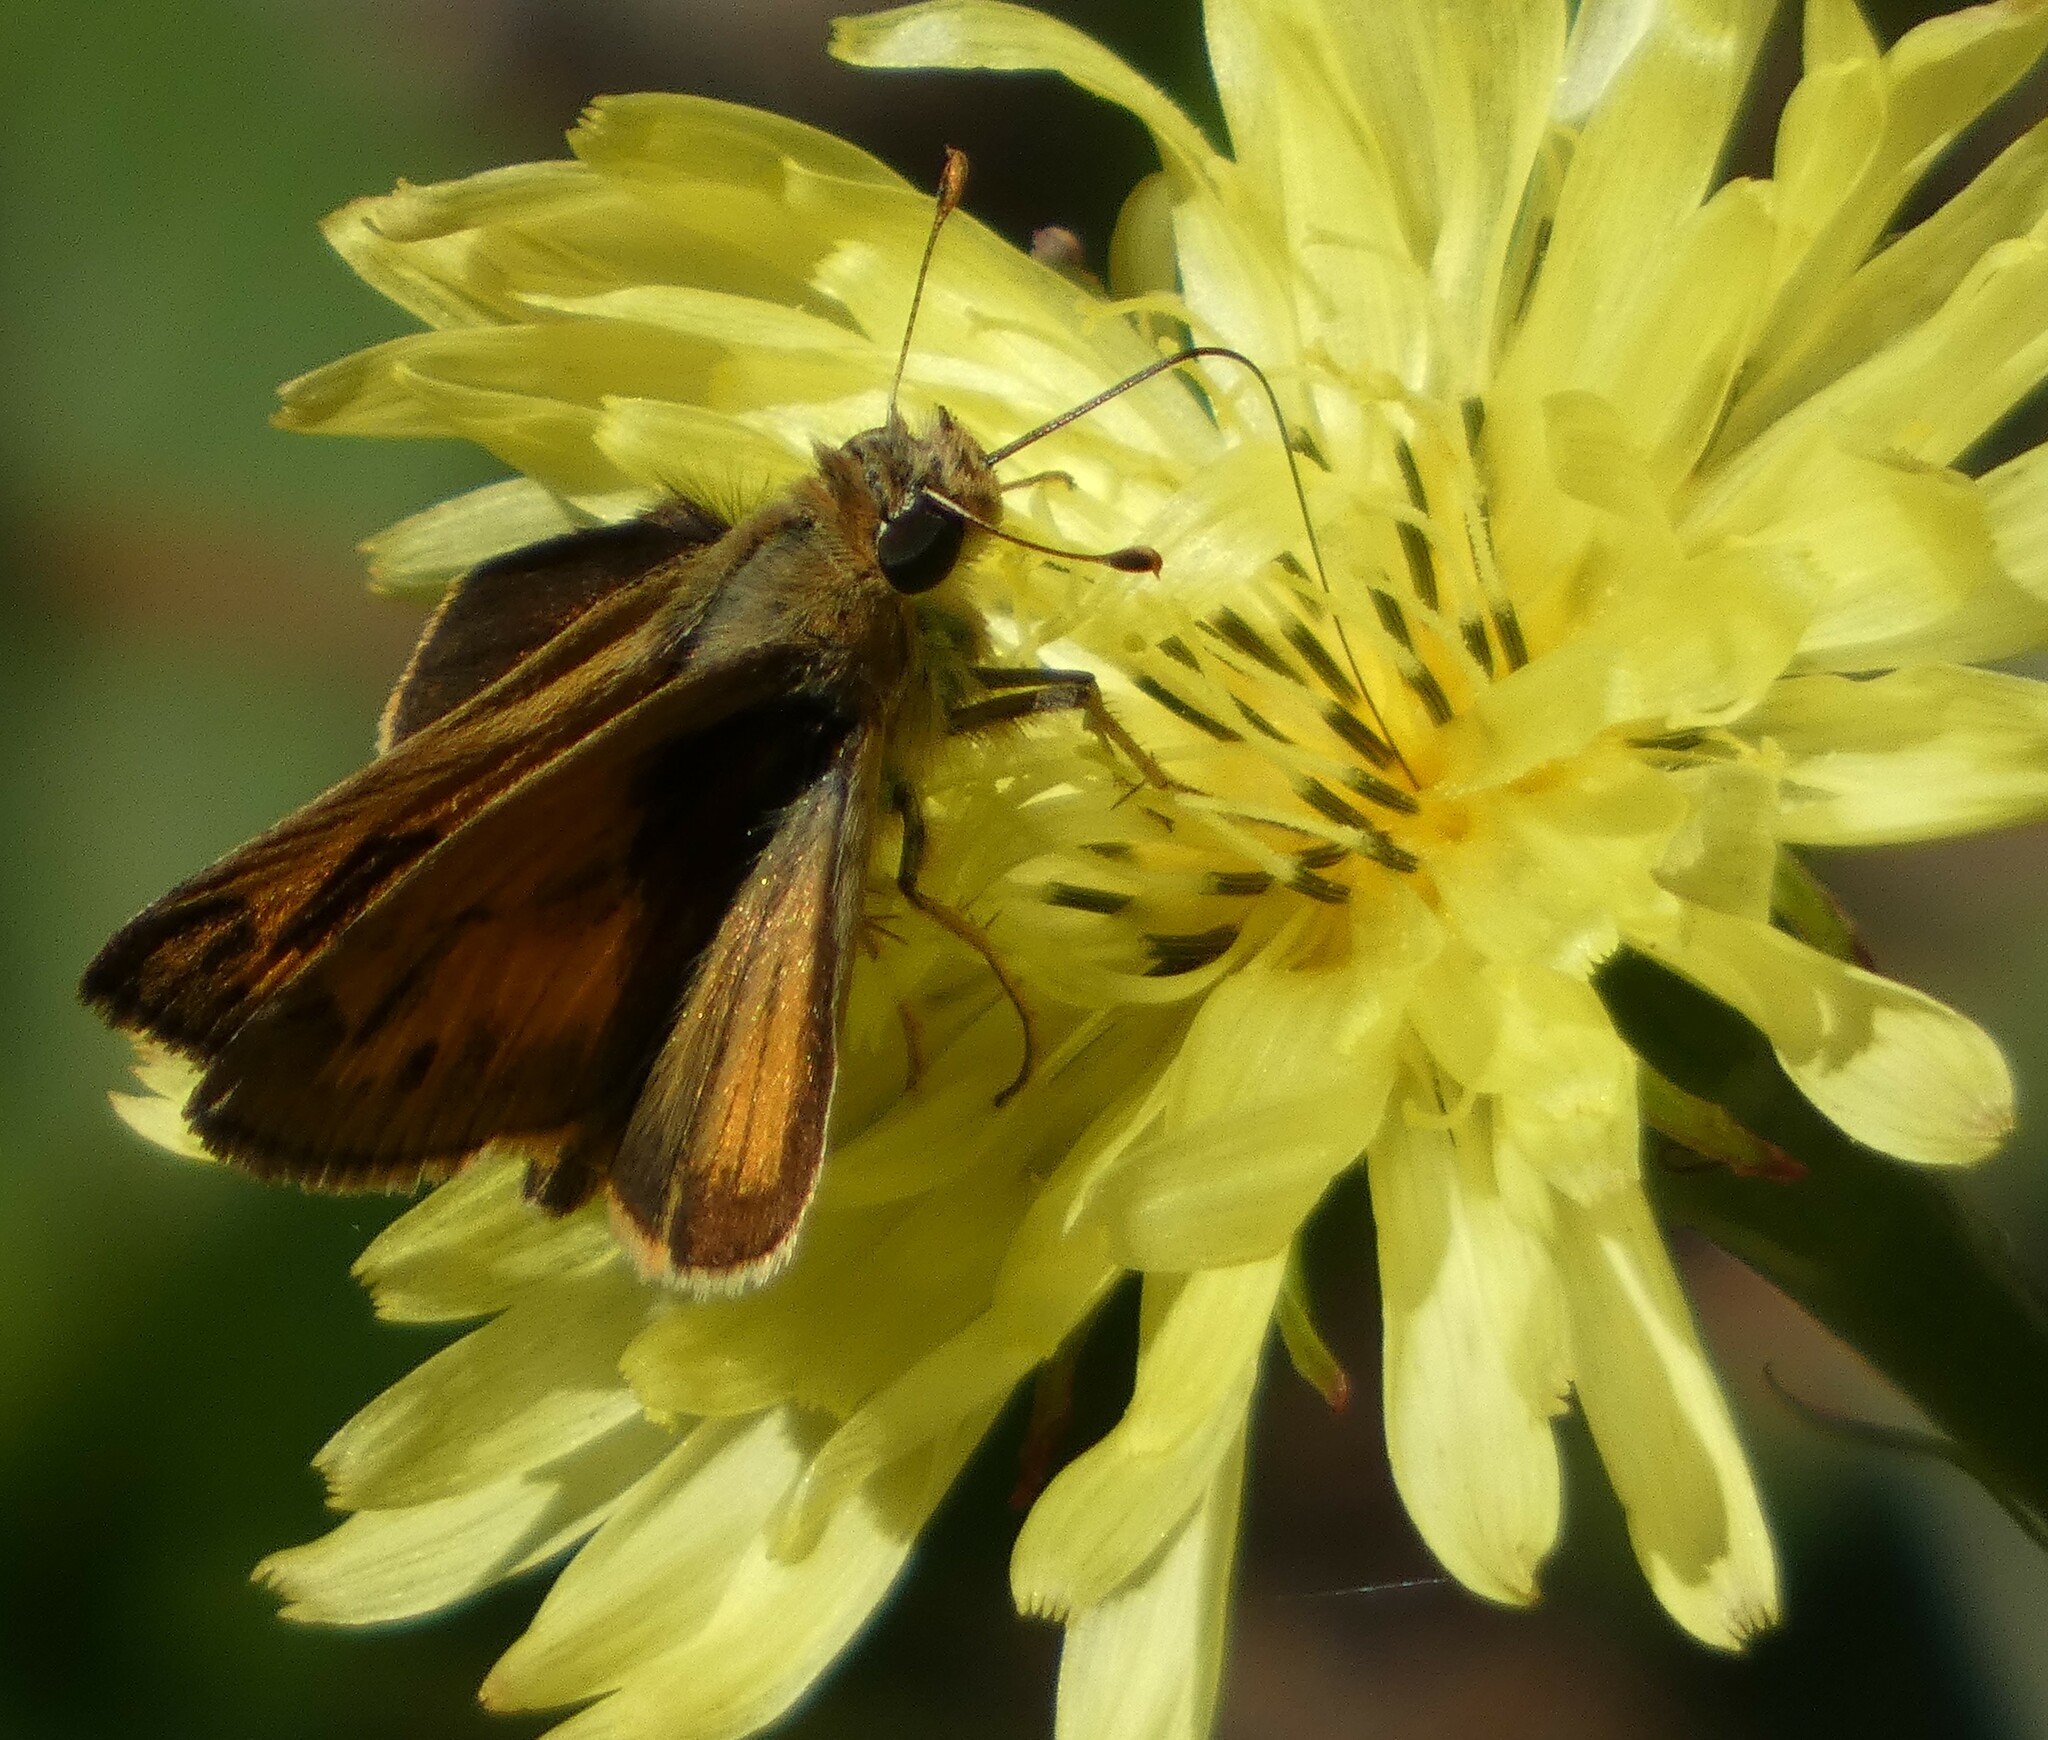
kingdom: Animalia
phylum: Arthropoda
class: Insecta
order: Lepidoptera
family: Hesperiidae
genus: Polites
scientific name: Polites vibex
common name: Whirlabout
